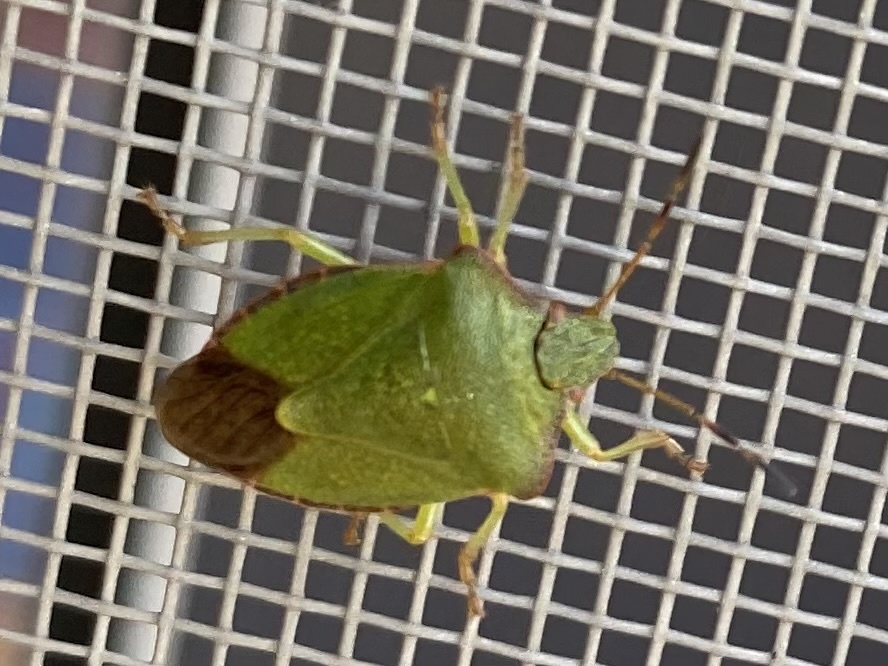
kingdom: Animalia
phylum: Arthropoda
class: Insecta
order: Hemiptera
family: Pentatomidae
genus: Palomena
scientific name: Palomena prasina
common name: Green shieldbug
